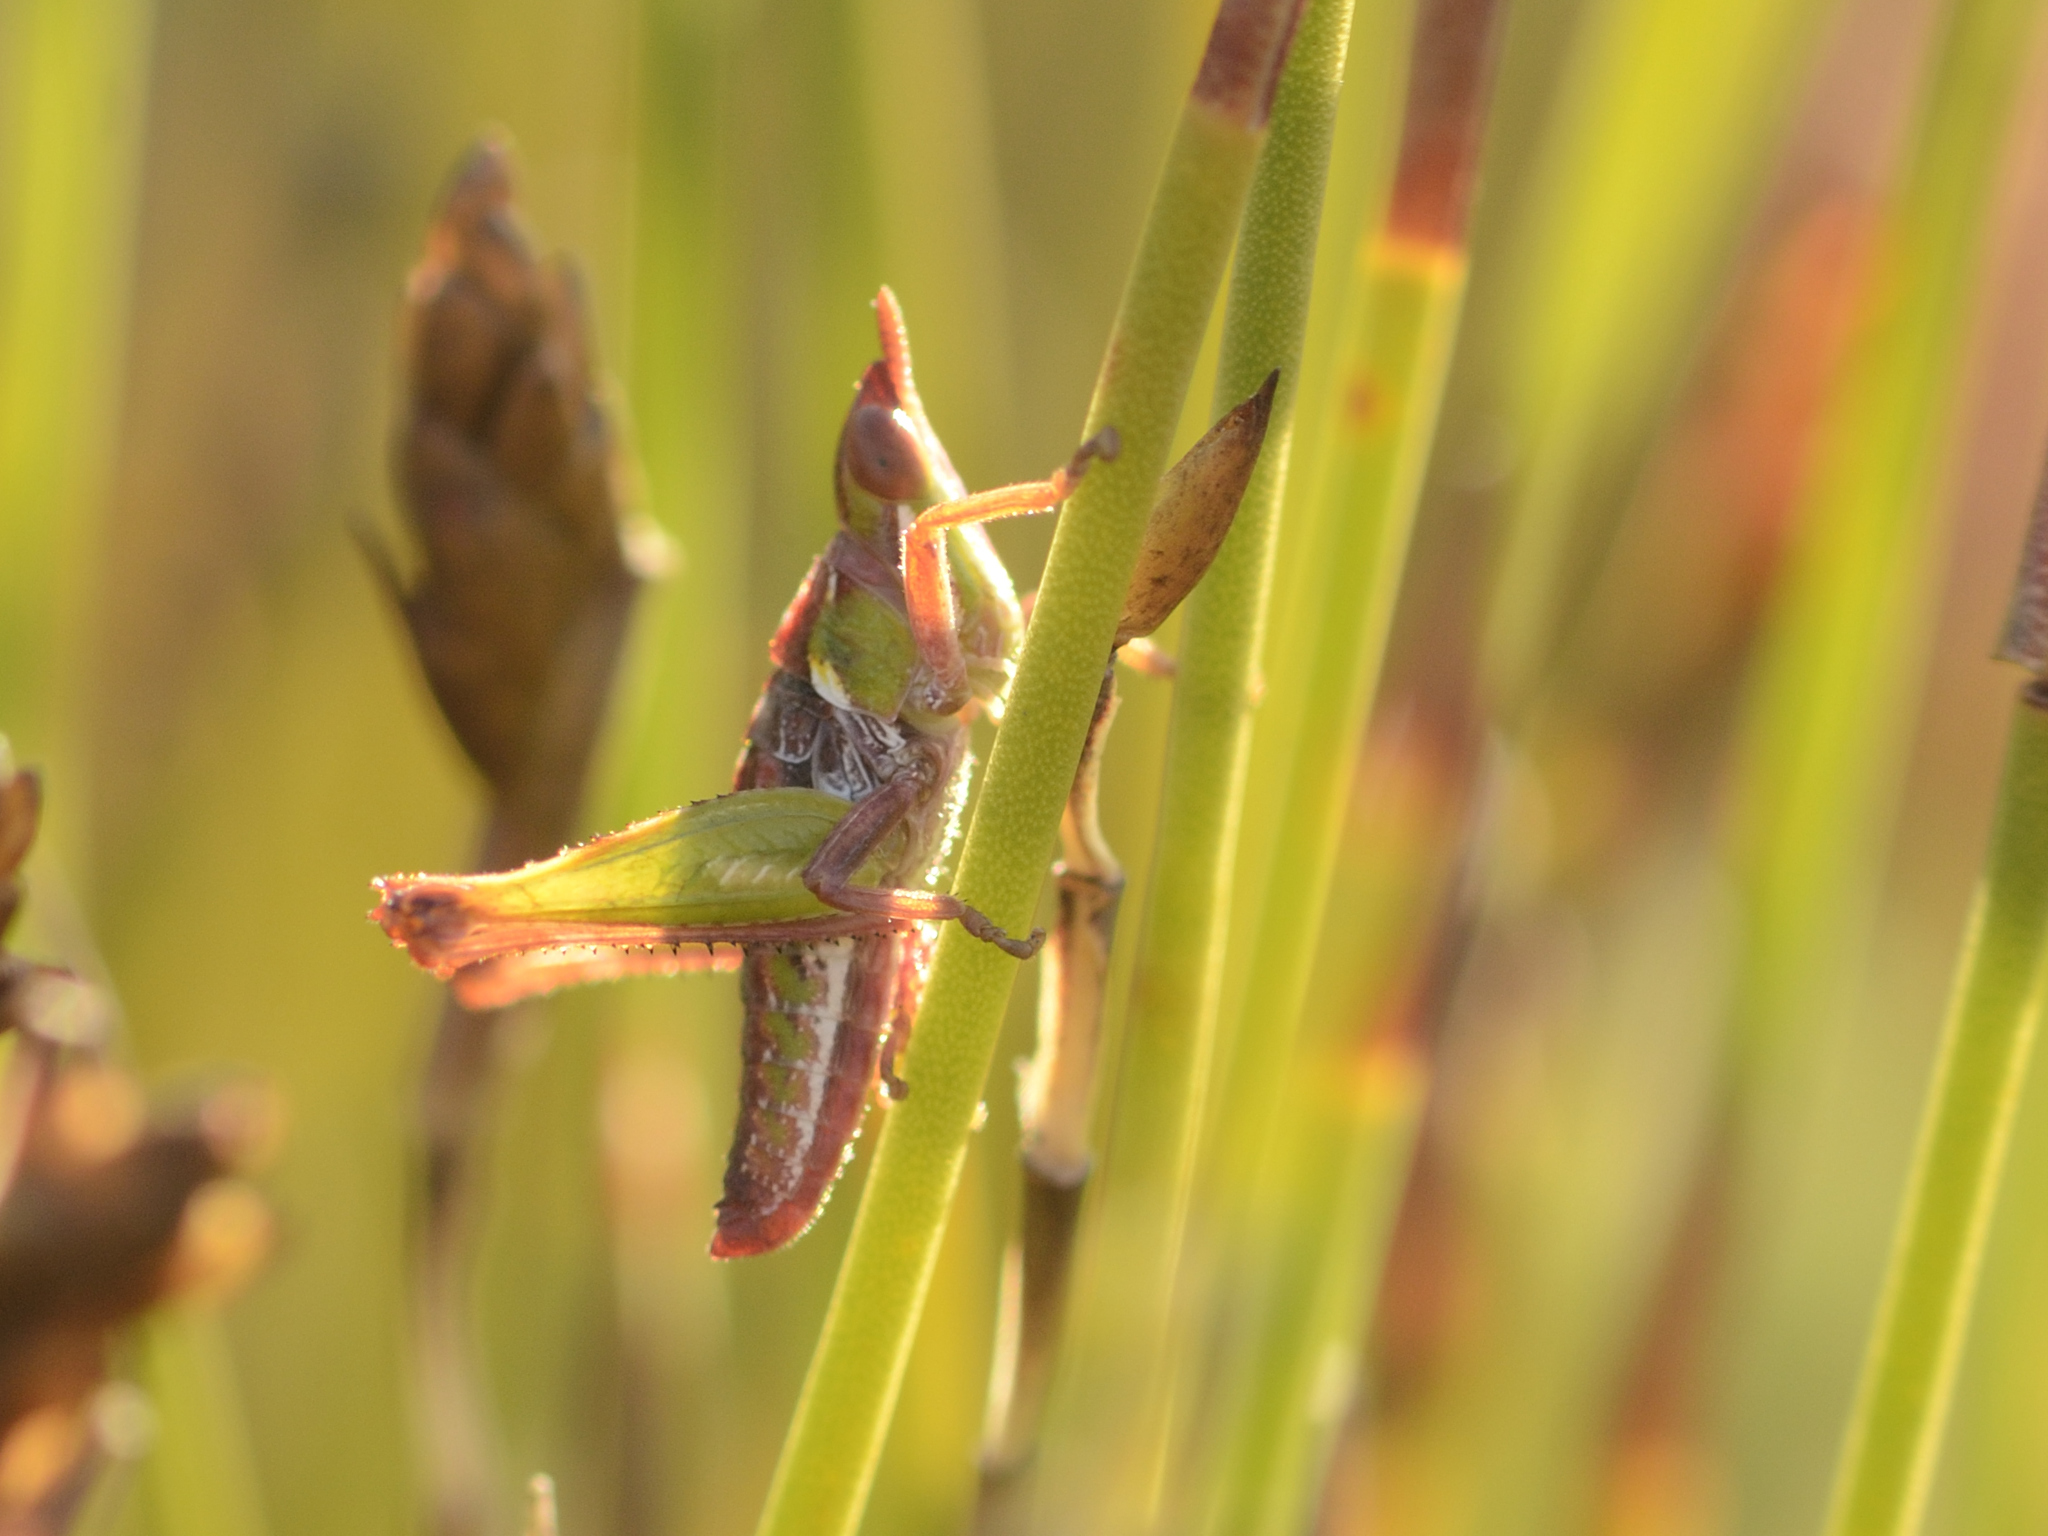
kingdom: Animalia
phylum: Arthropoda
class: Insecta
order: Orthoptera
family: Thericleidae
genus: Thericlesiella
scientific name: Thericlesiella meridionalis
